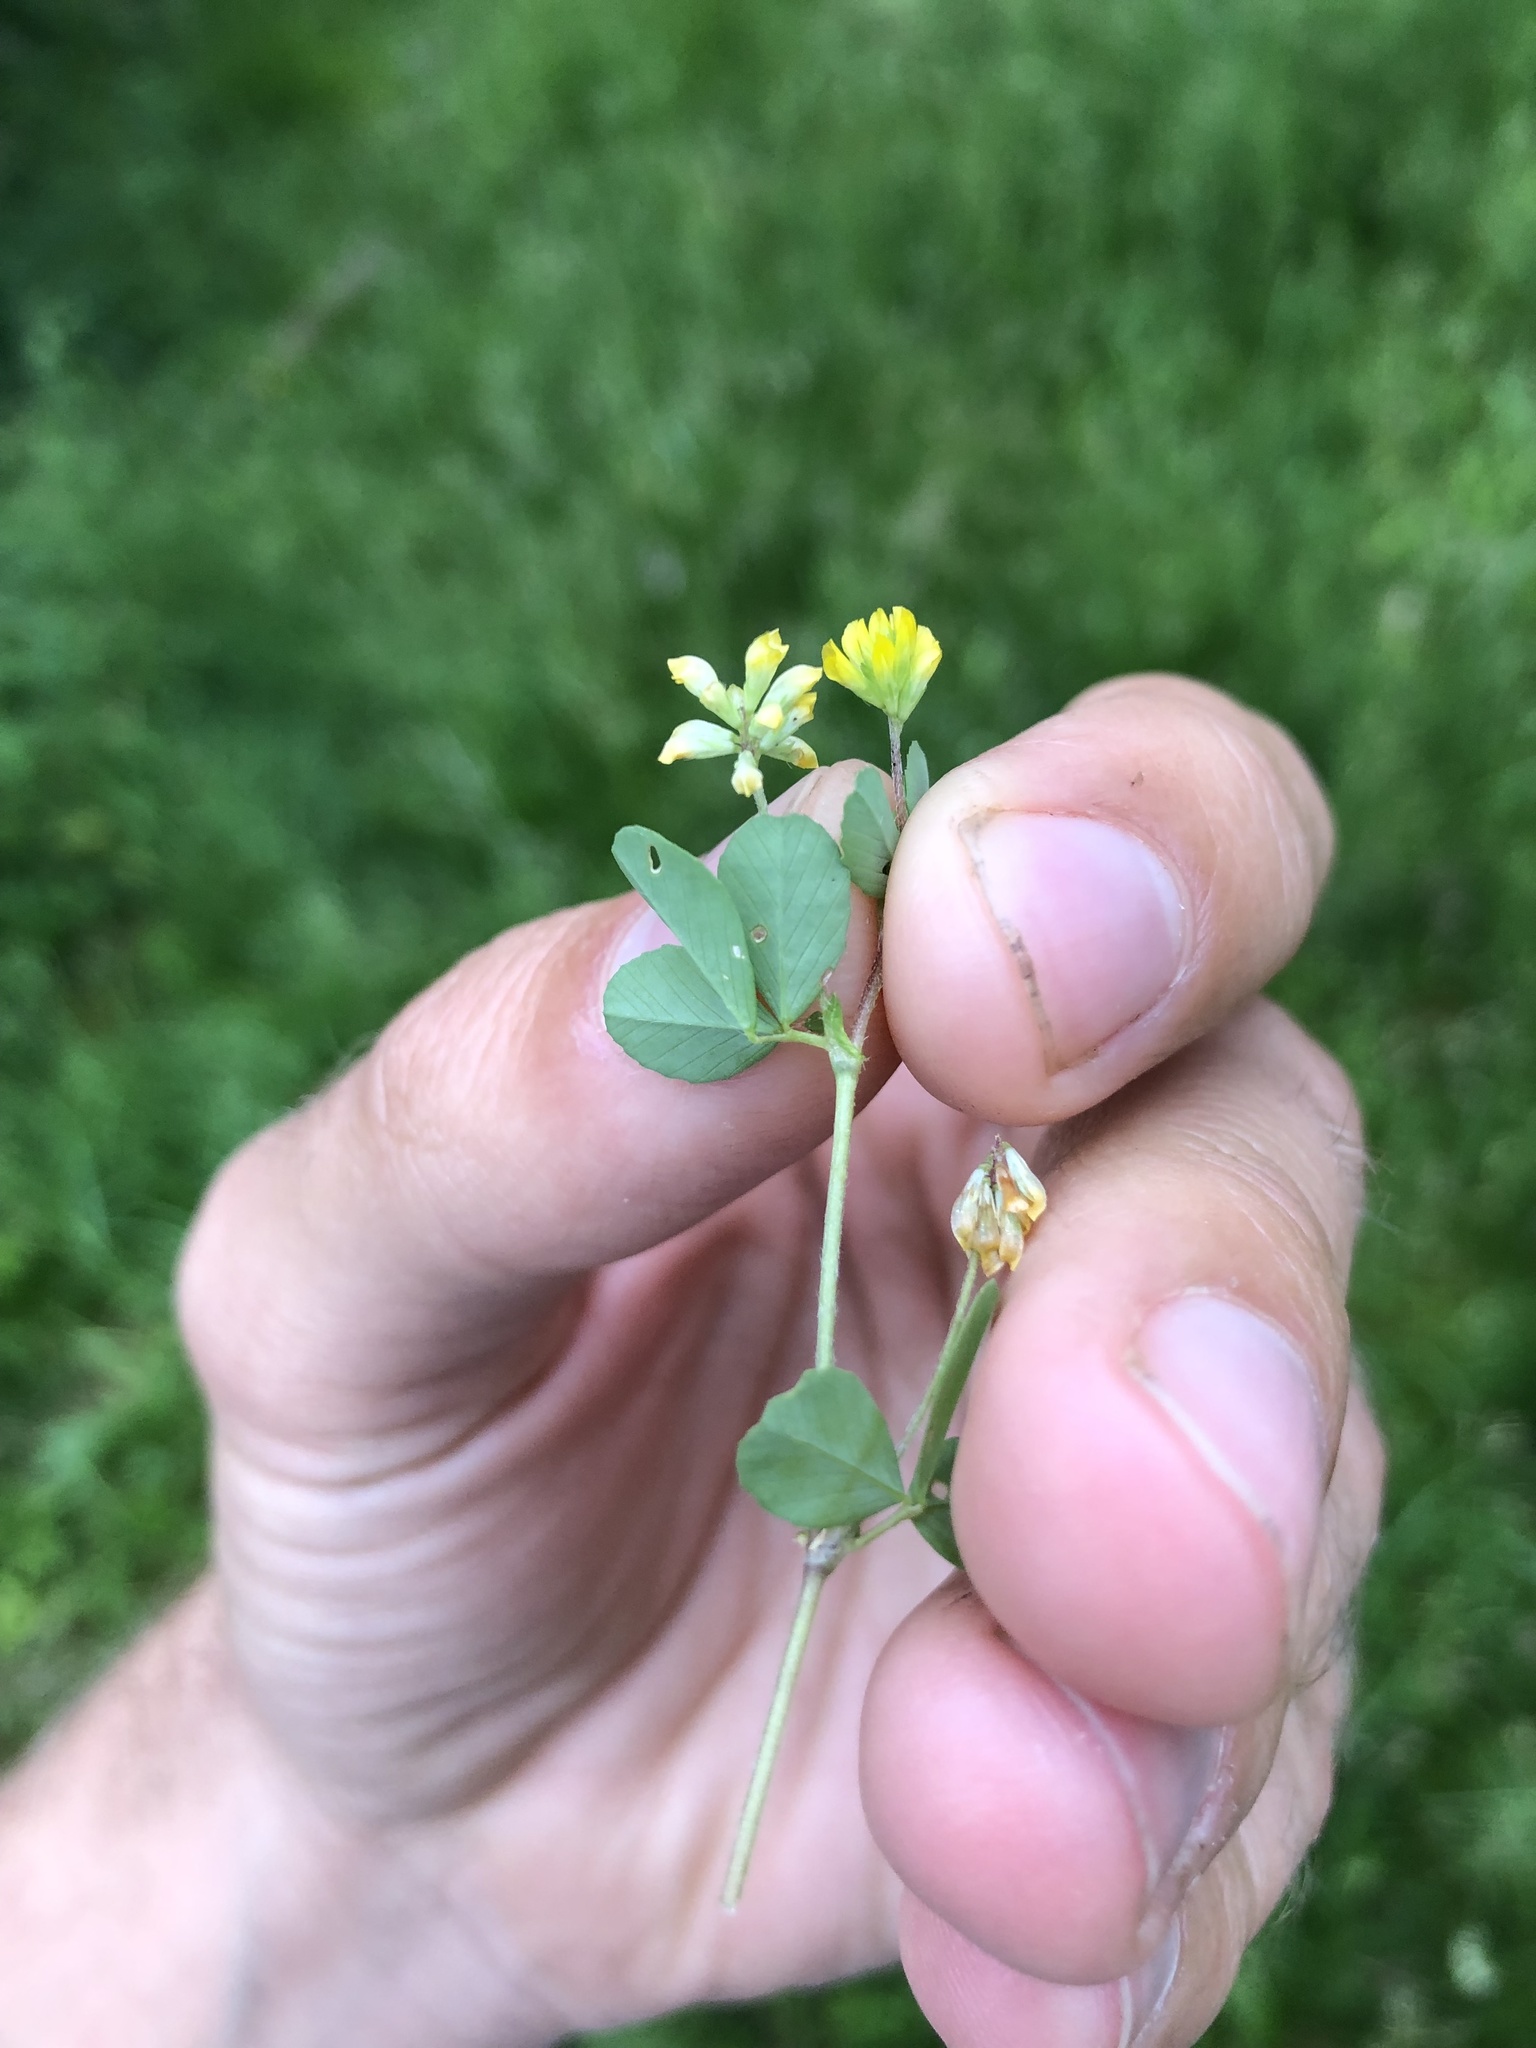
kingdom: Plantae
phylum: Tracheophyta
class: Magnoliopsida
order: Fabales
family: Fabaceae
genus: Trifolium
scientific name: Trifolium dubium
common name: Suckling clover
